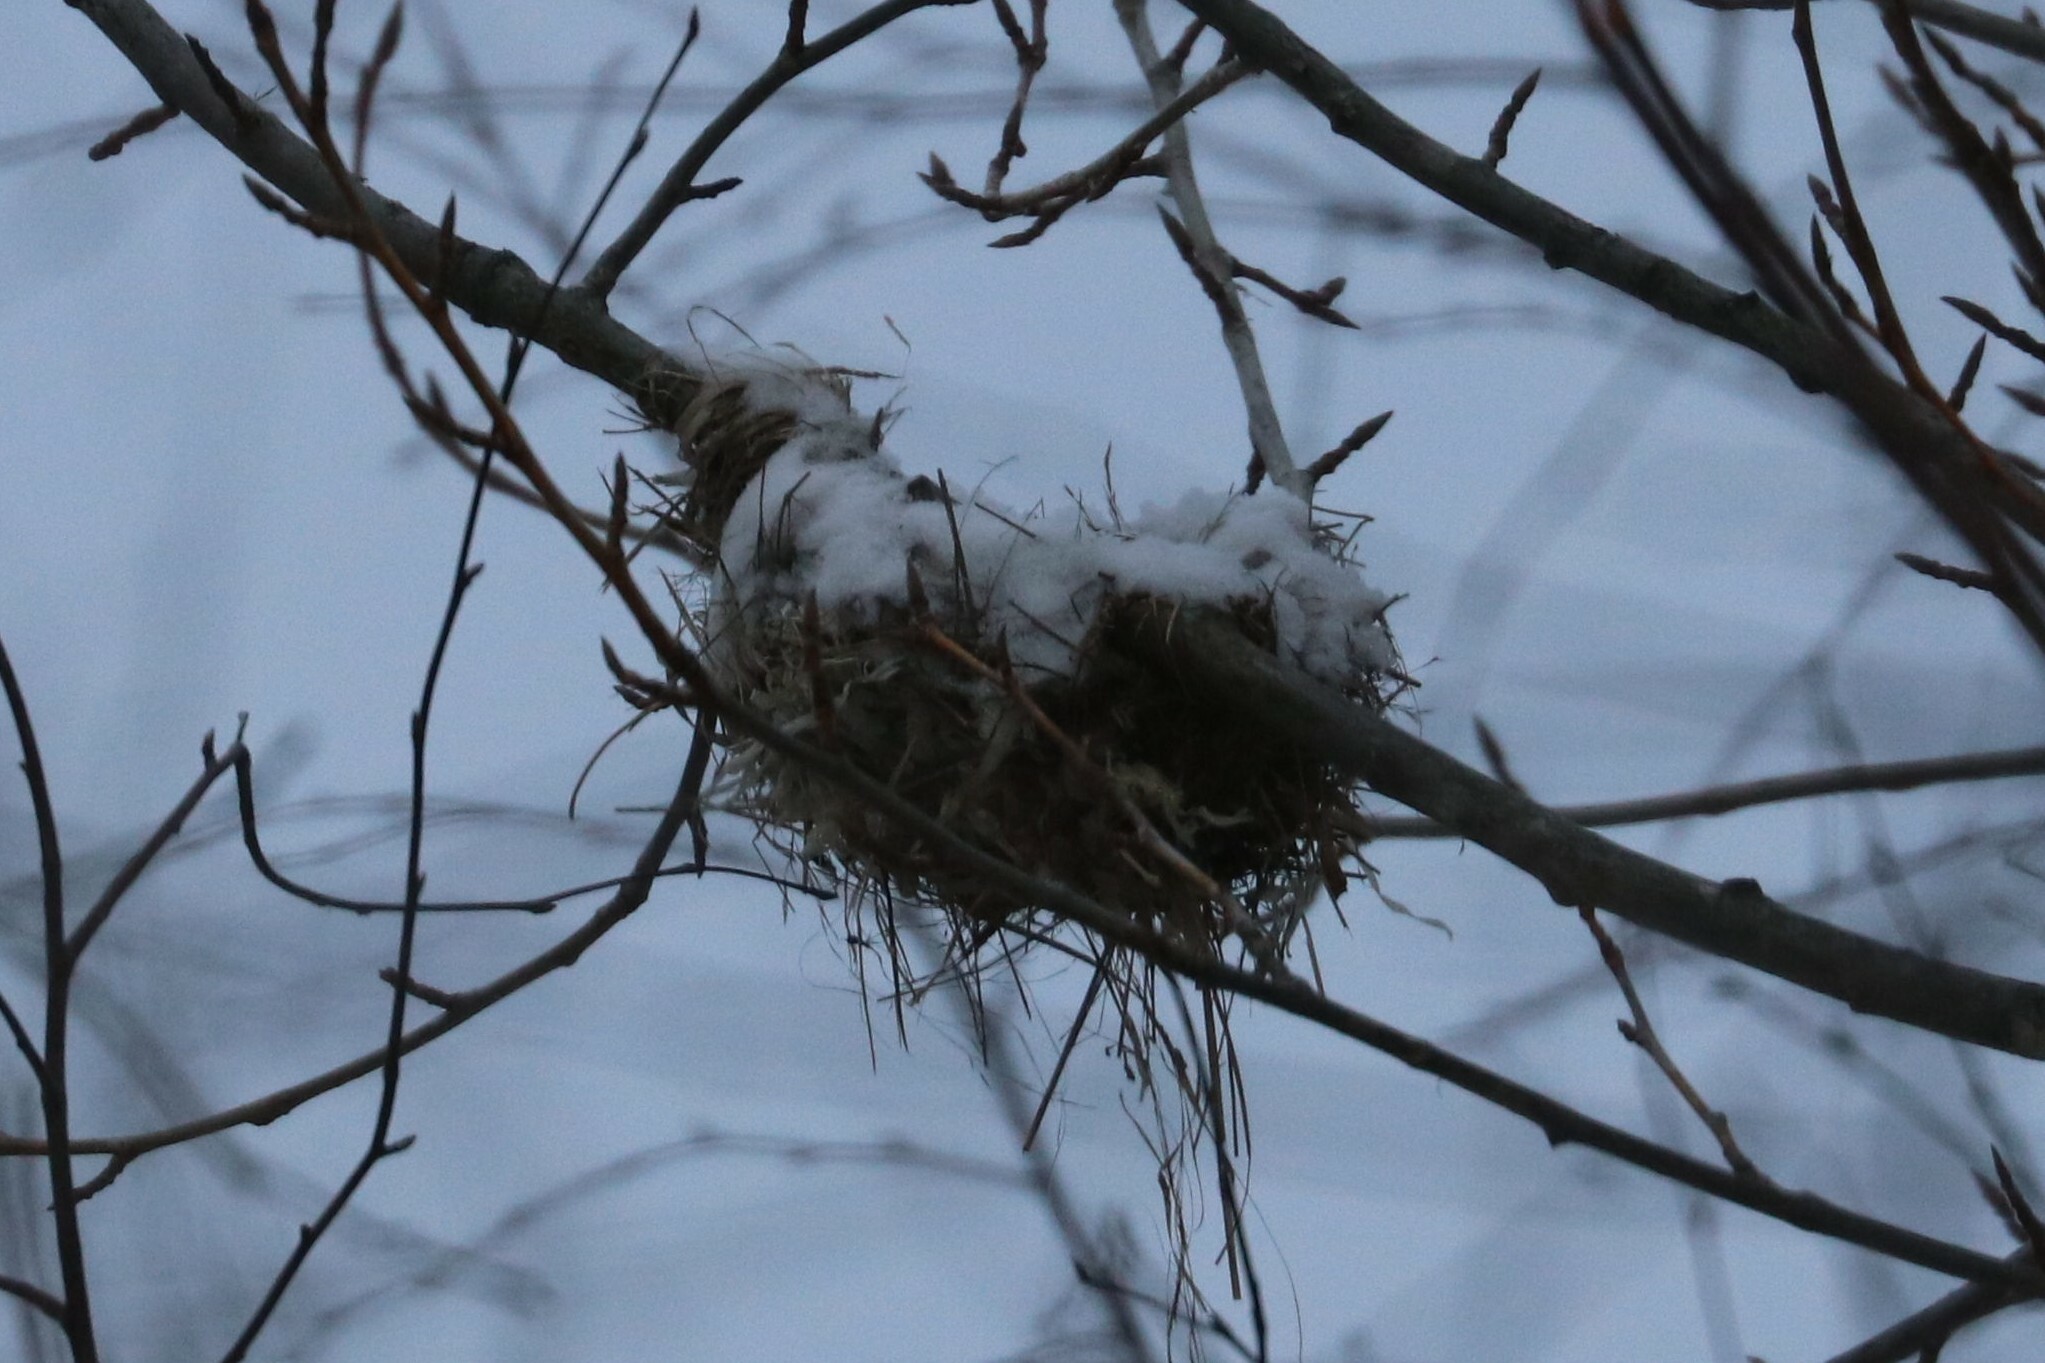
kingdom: Animalia
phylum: Chordata
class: Aves
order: Passeriformes
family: Oriolidae
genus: Oriolus
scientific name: Oriolus oriolus
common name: Eurasian golden oriole
